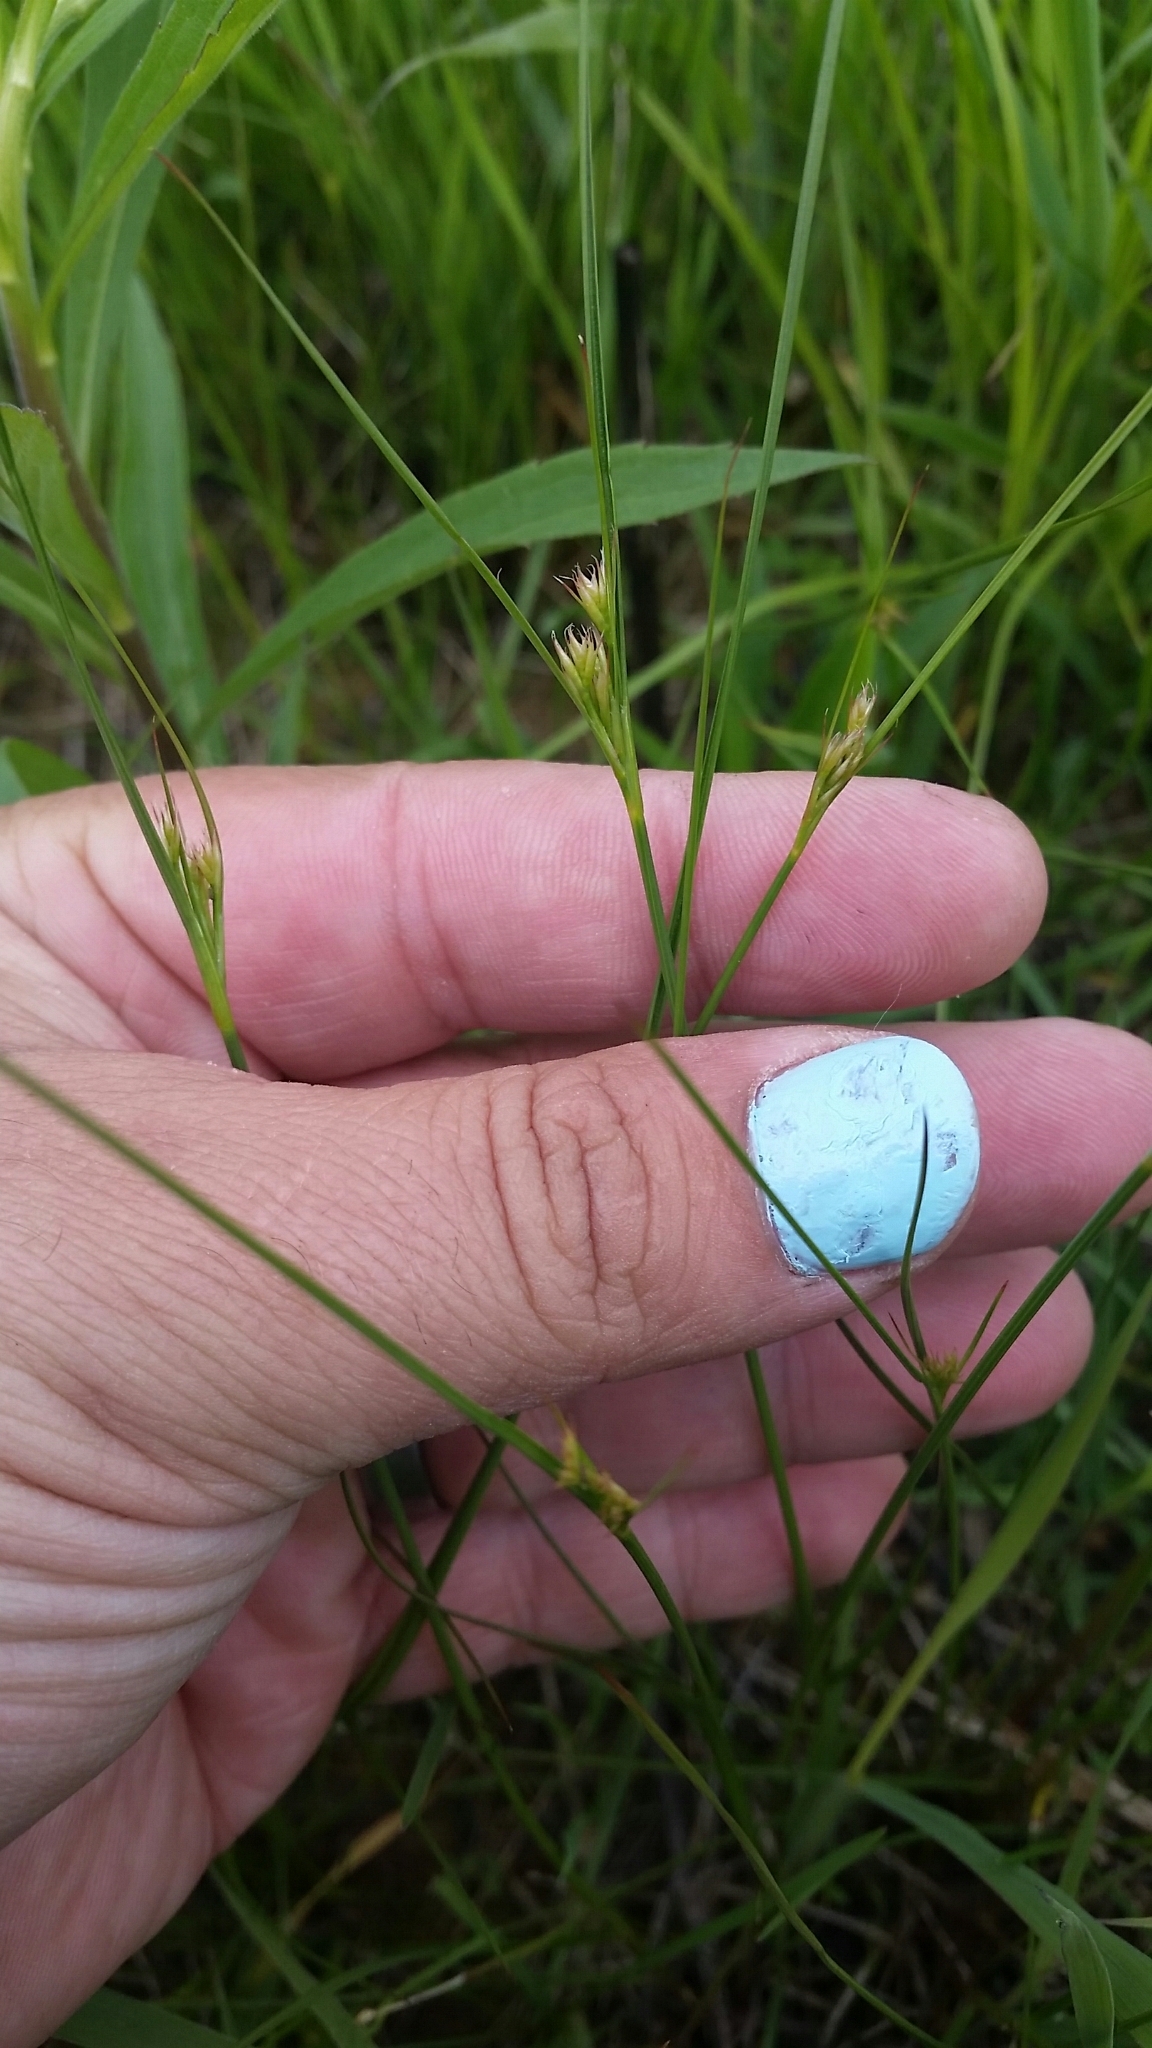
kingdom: Plantae
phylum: Tracheophyta
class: Liliopsida
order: Poales
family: Juncaceae
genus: Juncus
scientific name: Juncus tenuis
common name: Slender rush
